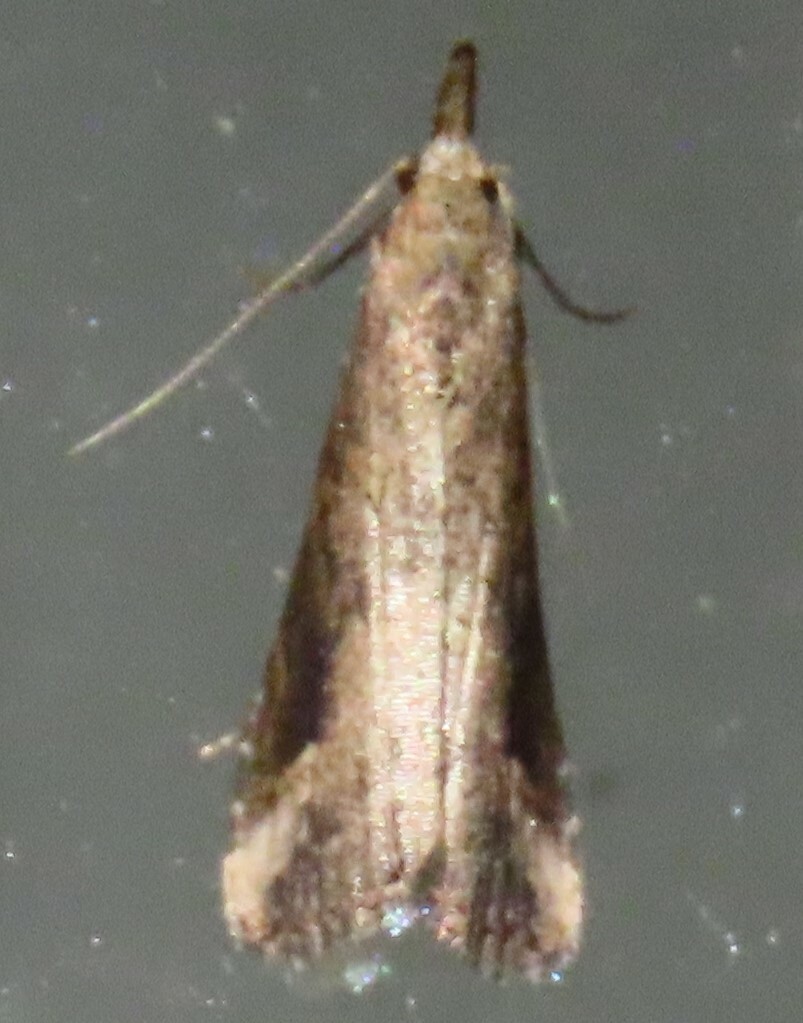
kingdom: Animalia
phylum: Arthropoda
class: Insecta
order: Lepidoptera
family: Erebidae
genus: Schrankia
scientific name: Schrankia costaestrigalis
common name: Pinion-streaked snout
